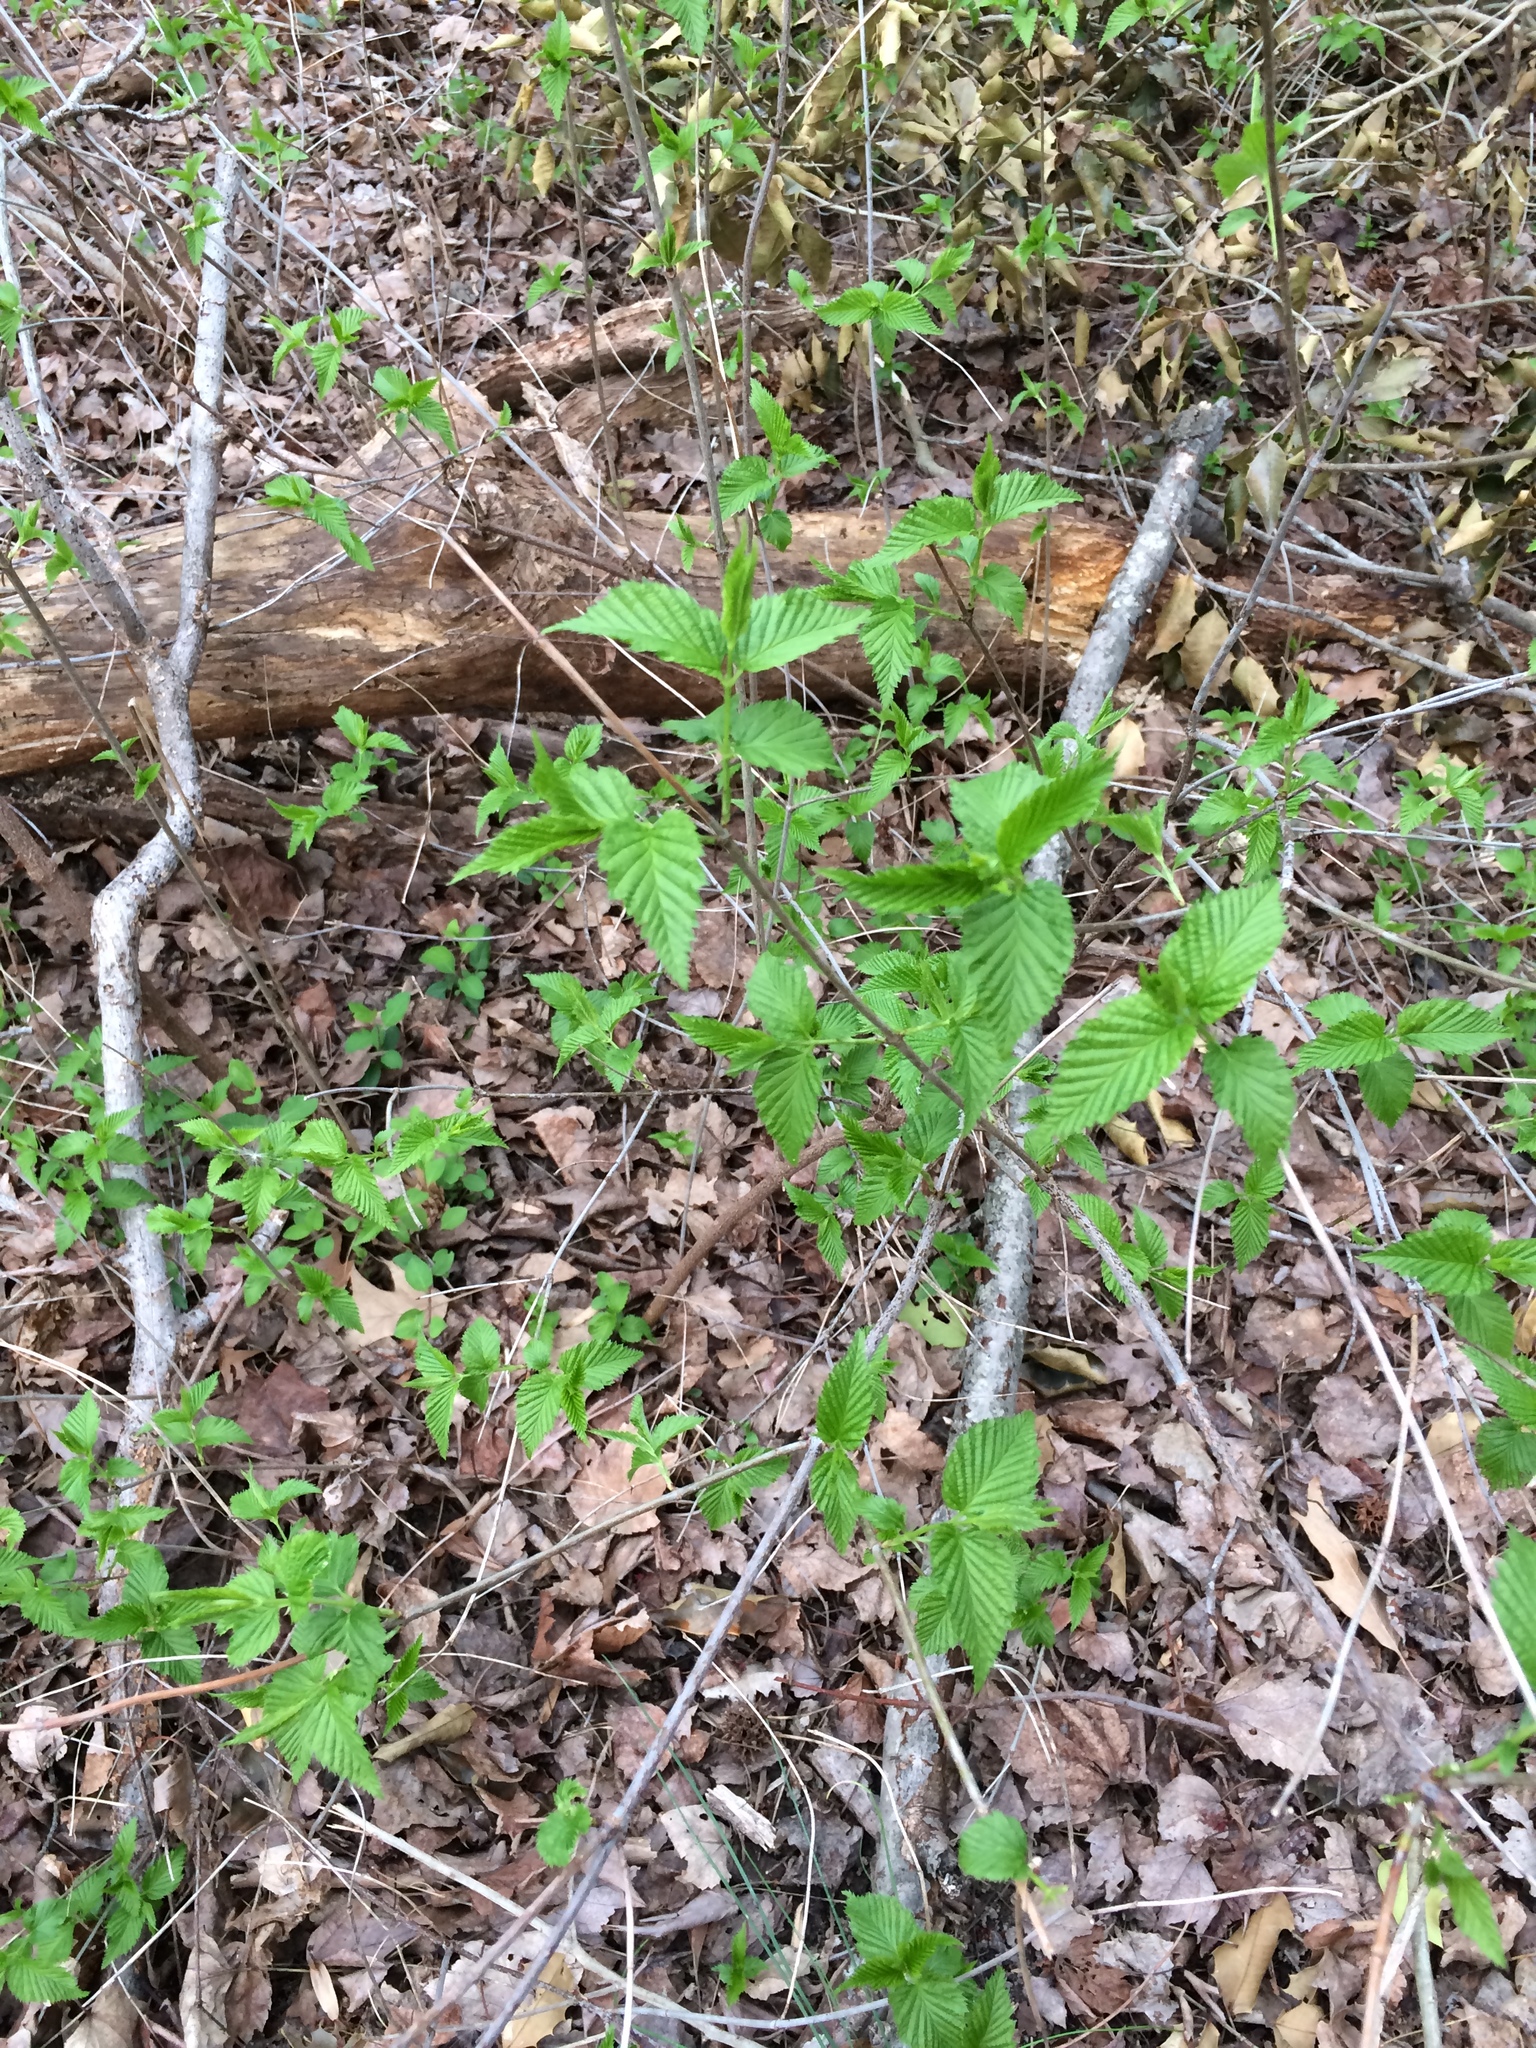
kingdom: Plantae
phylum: Tracheophyta
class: Magnoliopsida
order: Rosales
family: Rosaceae
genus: Rhodotypos
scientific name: Rhodotypos scandens
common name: Jetbead
